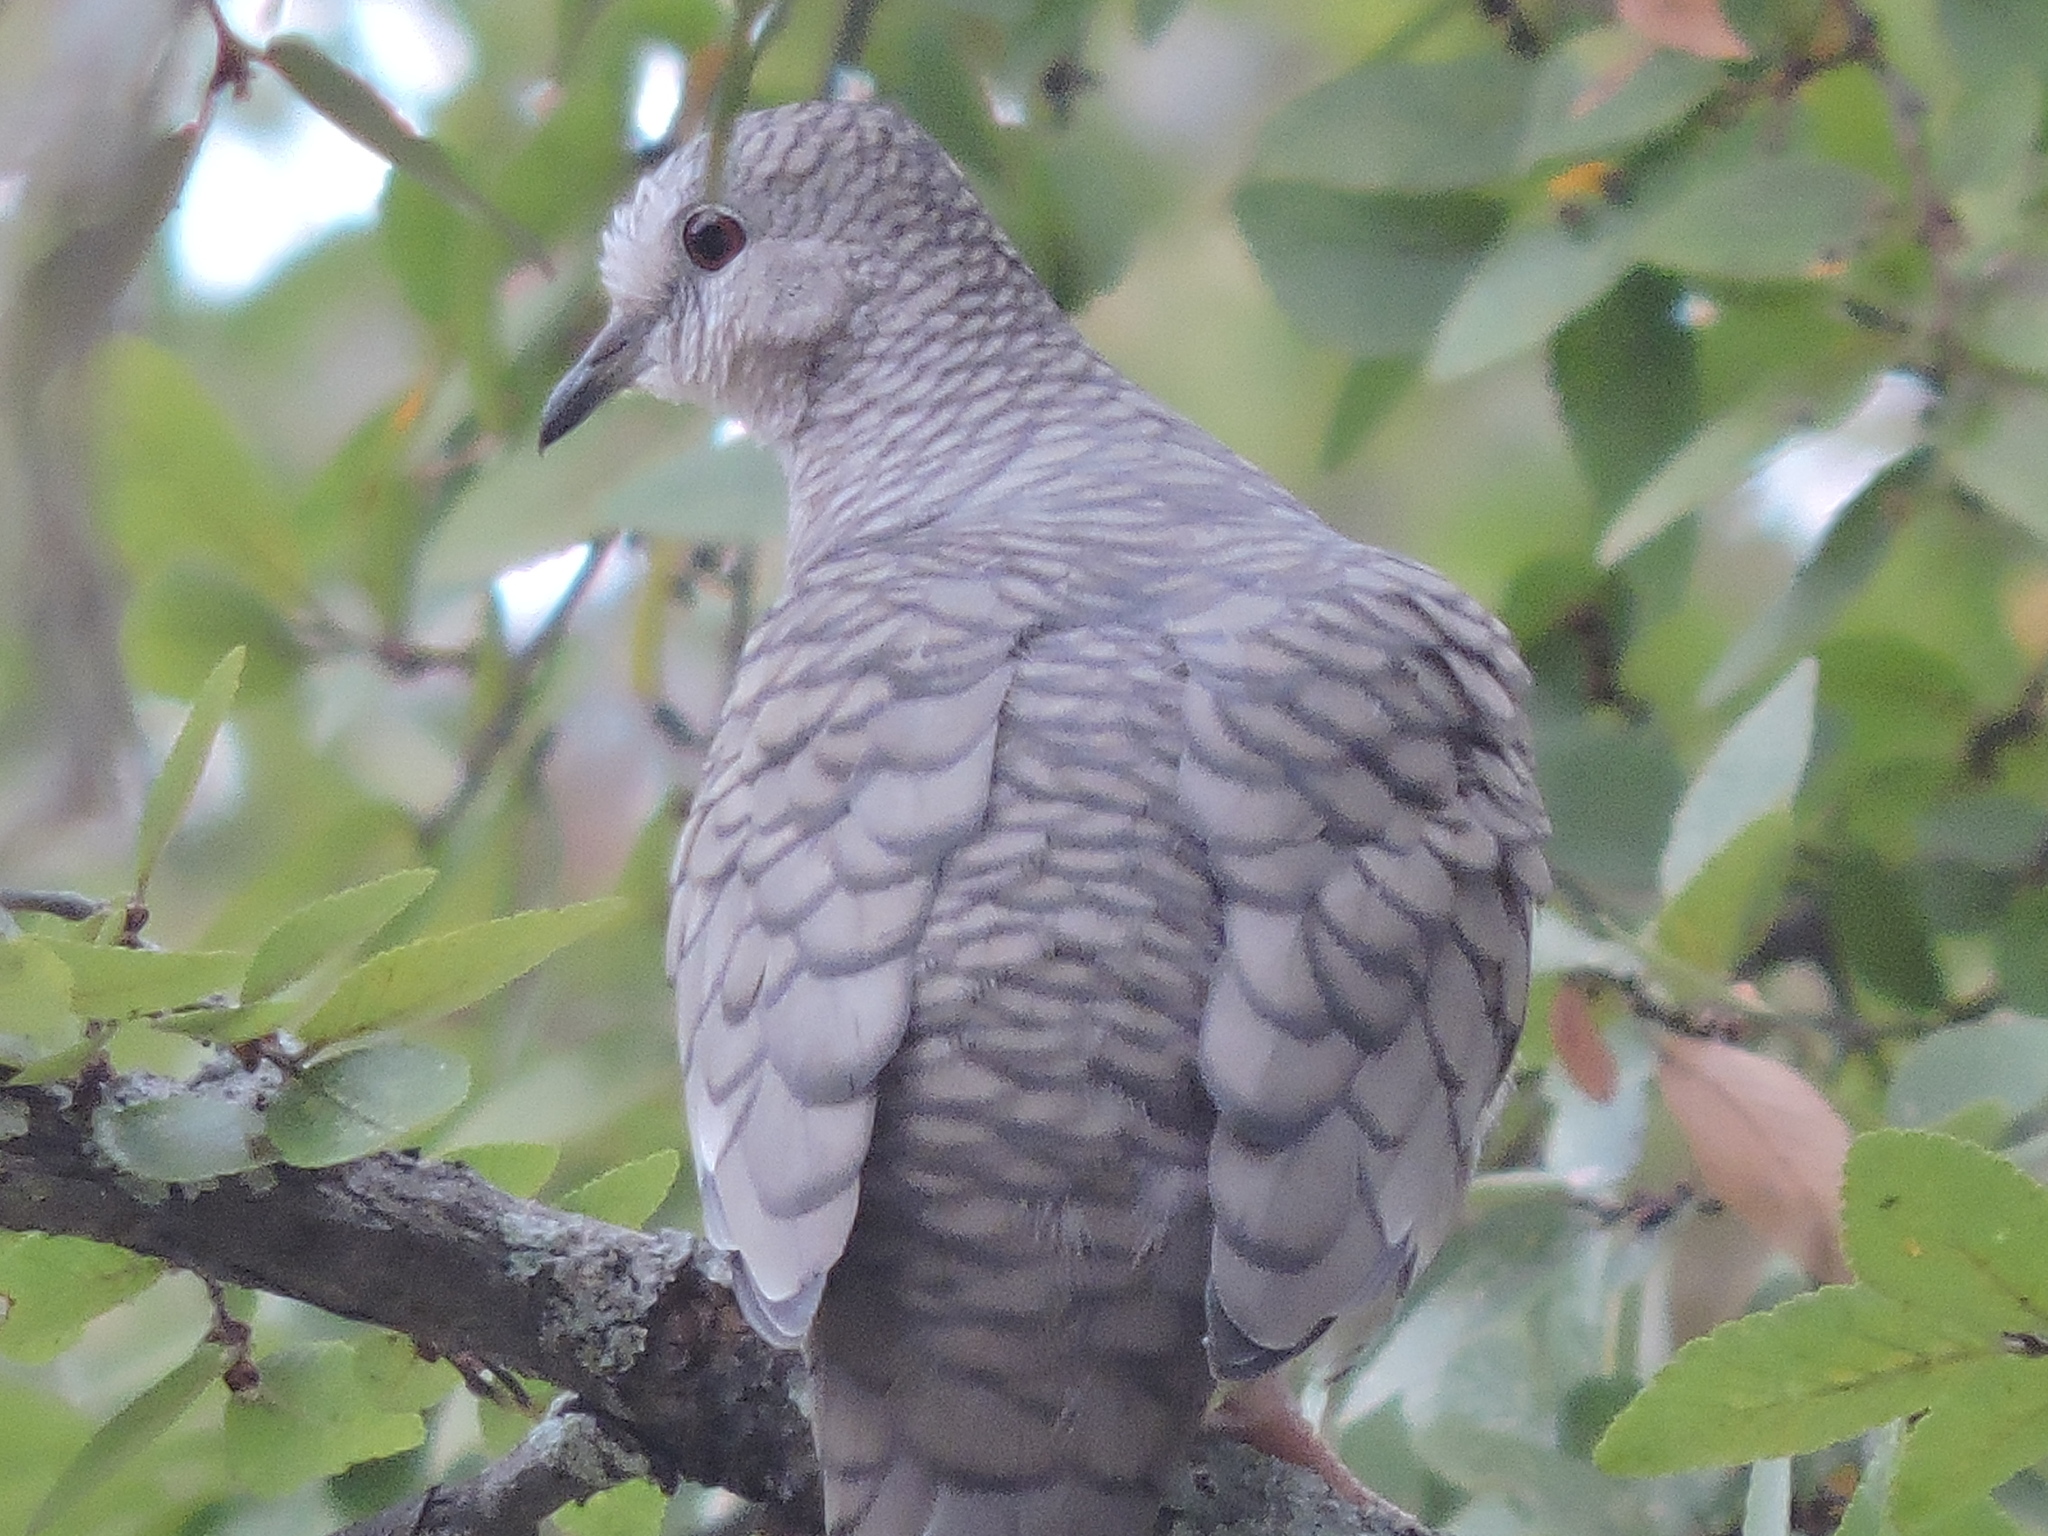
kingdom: Animalia
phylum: Chordata
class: Aves
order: Columbiformes
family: Columbidae
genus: Columbina
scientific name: Columbina inca
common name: Inca dove
